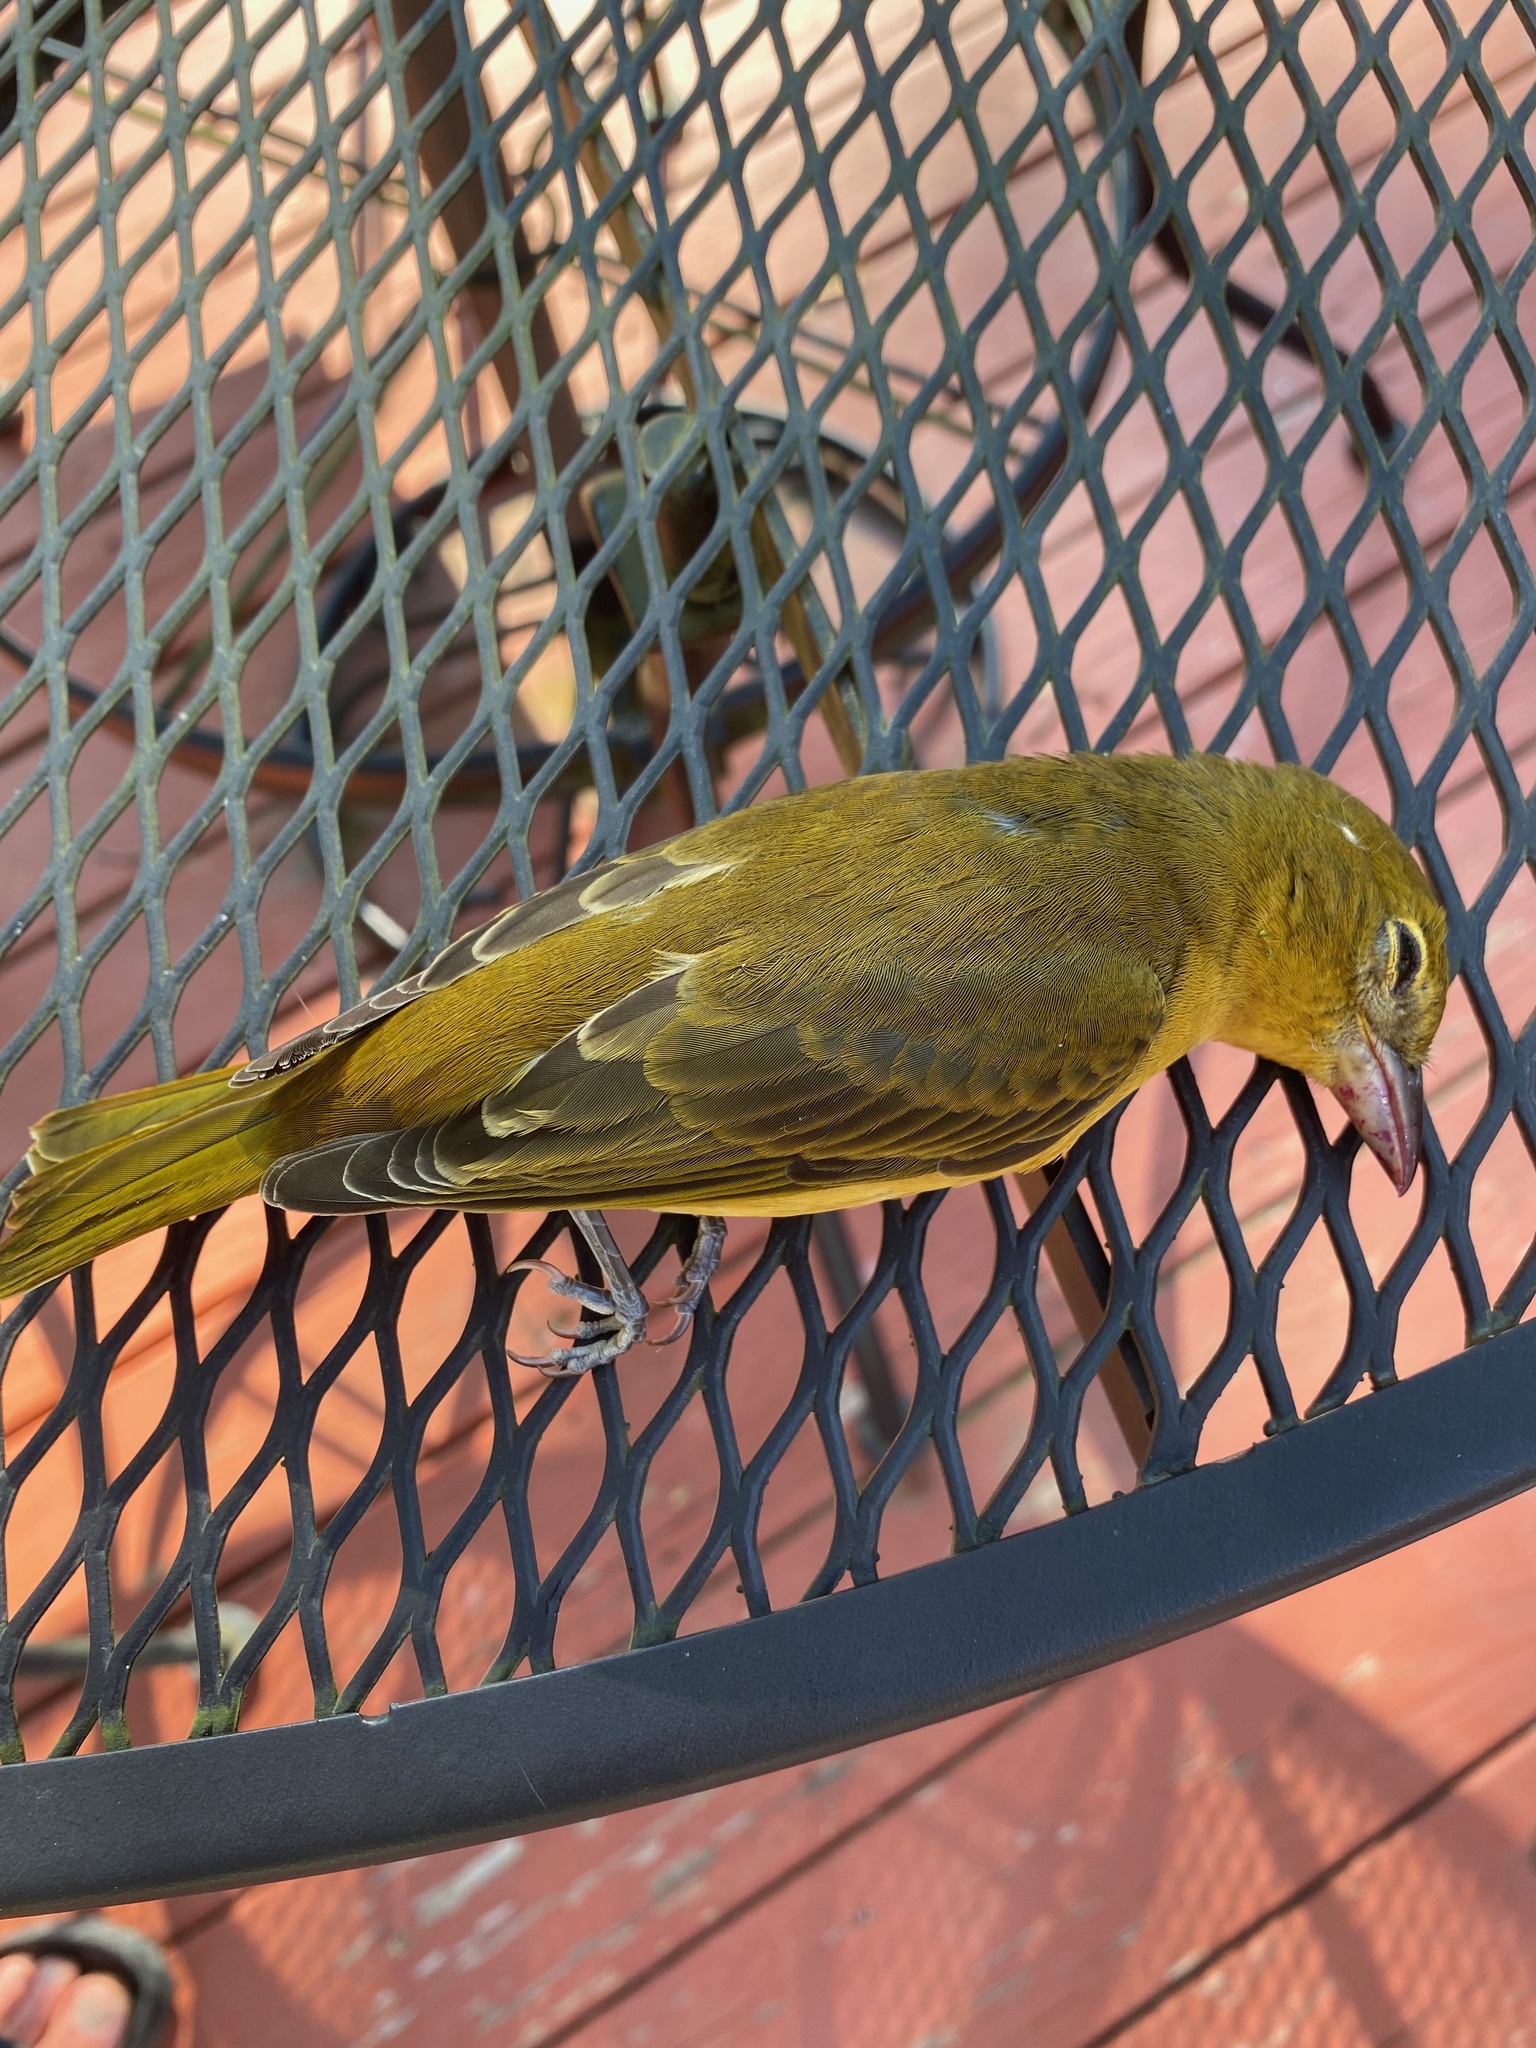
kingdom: Animalia
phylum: Chordata
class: Aves
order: Passeriformes
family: Cardinalidae
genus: Piranga
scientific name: Piranga rubra
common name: Summer tanager
